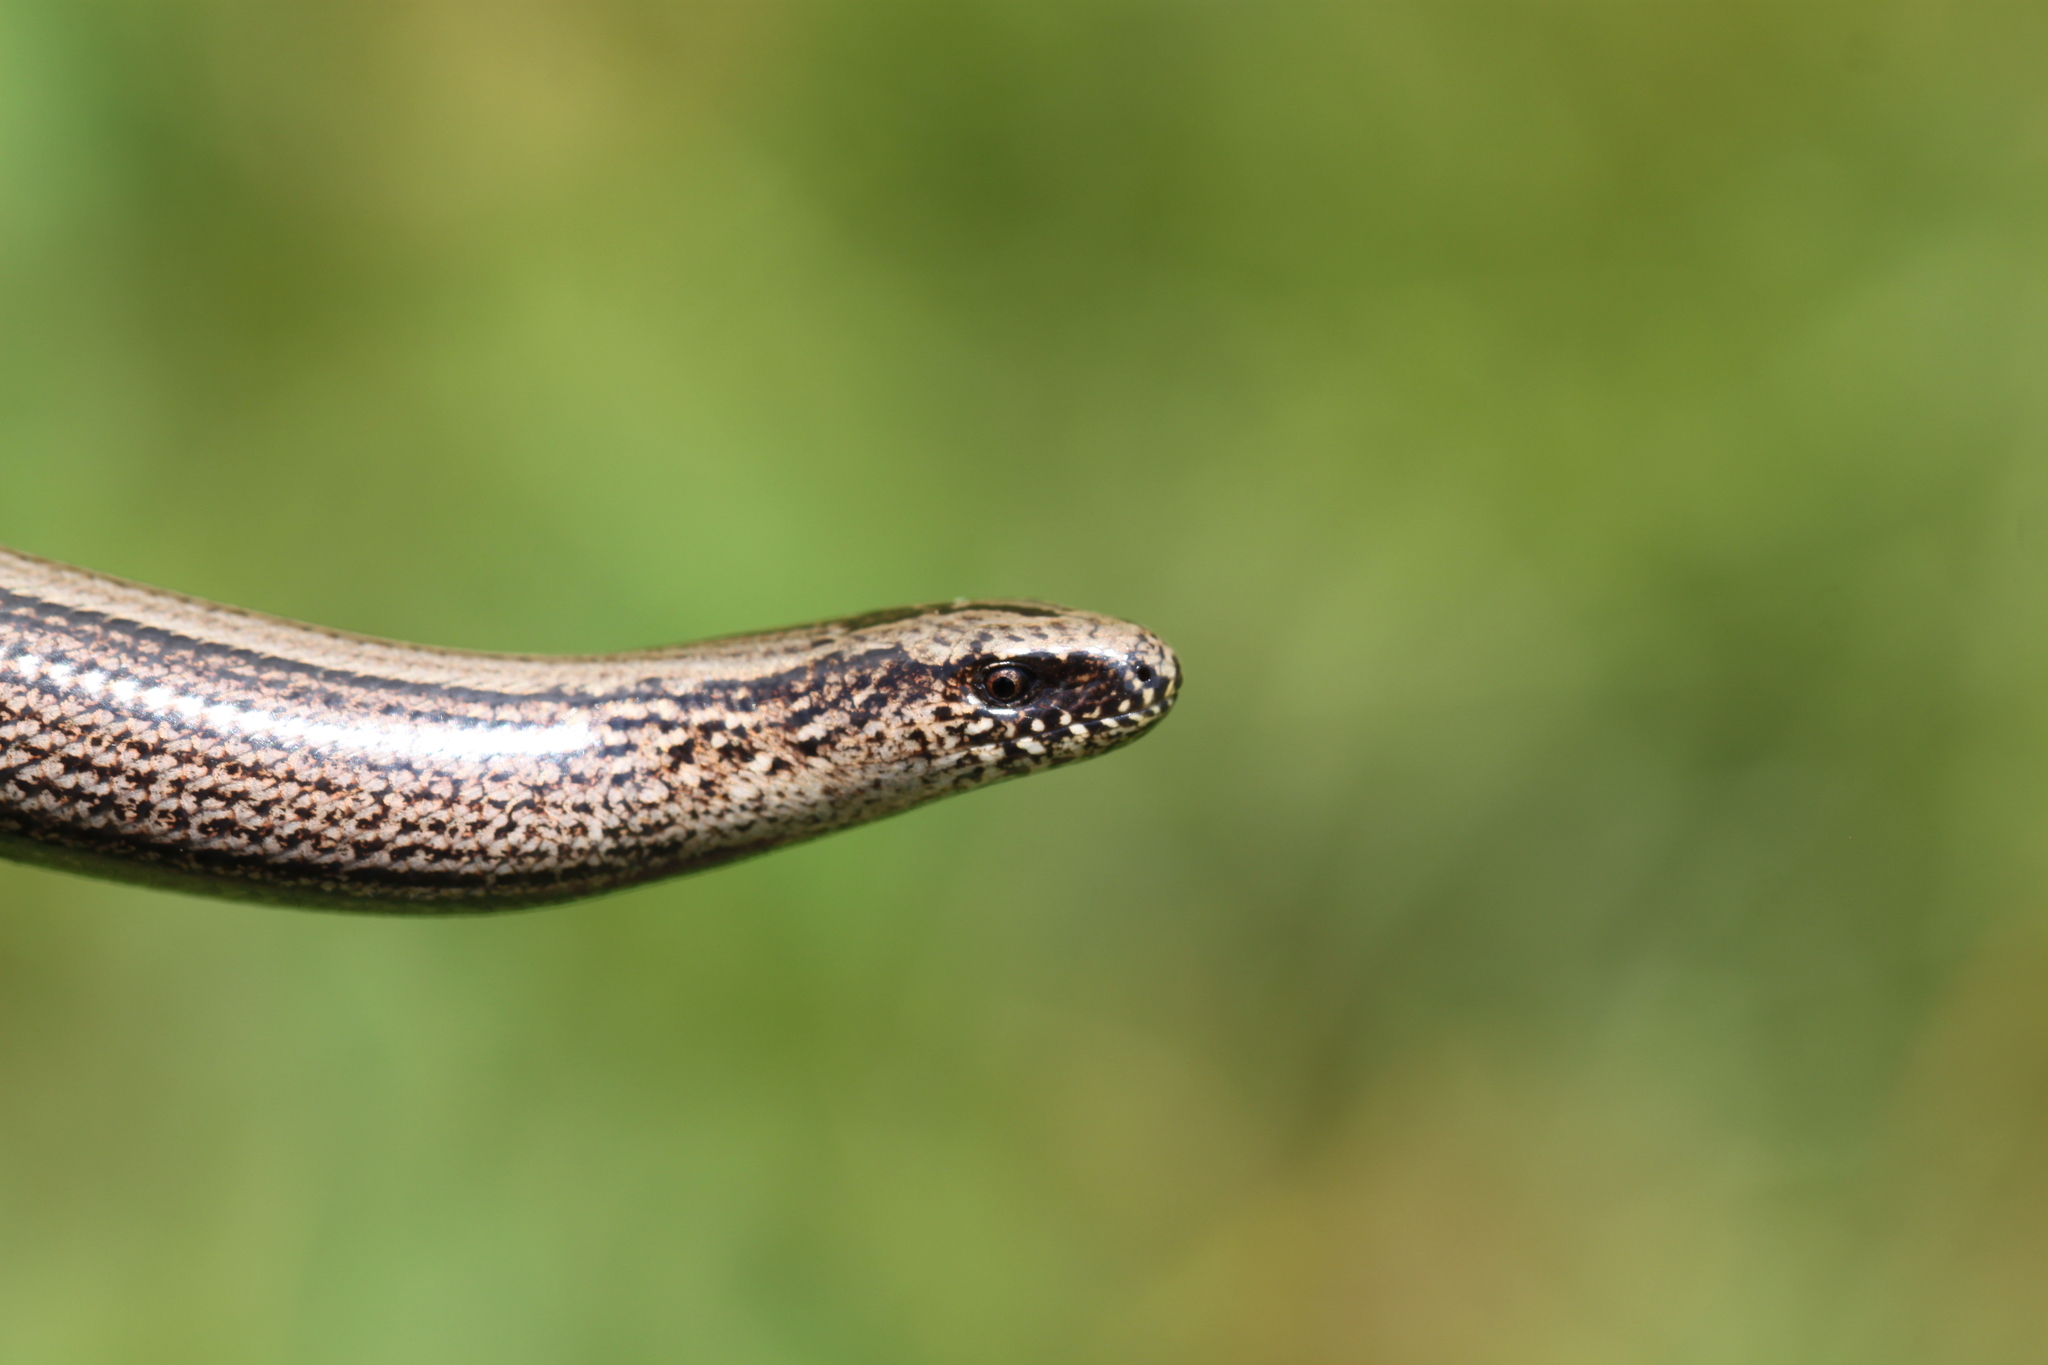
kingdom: Animalia
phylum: Chordata
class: Squamata
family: Anguidae
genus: Anguis
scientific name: Anguis fragilis
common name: Slow worm
